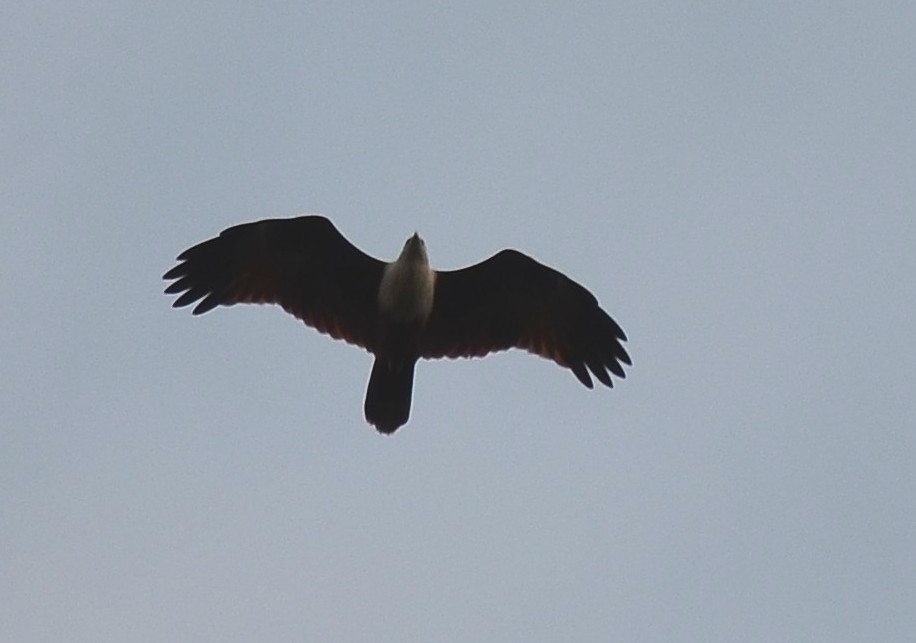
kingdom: Animalia
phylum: Chordata
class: Aves
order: Accipitriformes
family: Accipitridae
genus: Haliastur
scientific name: Haliastur indus
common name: Brahminy kite
